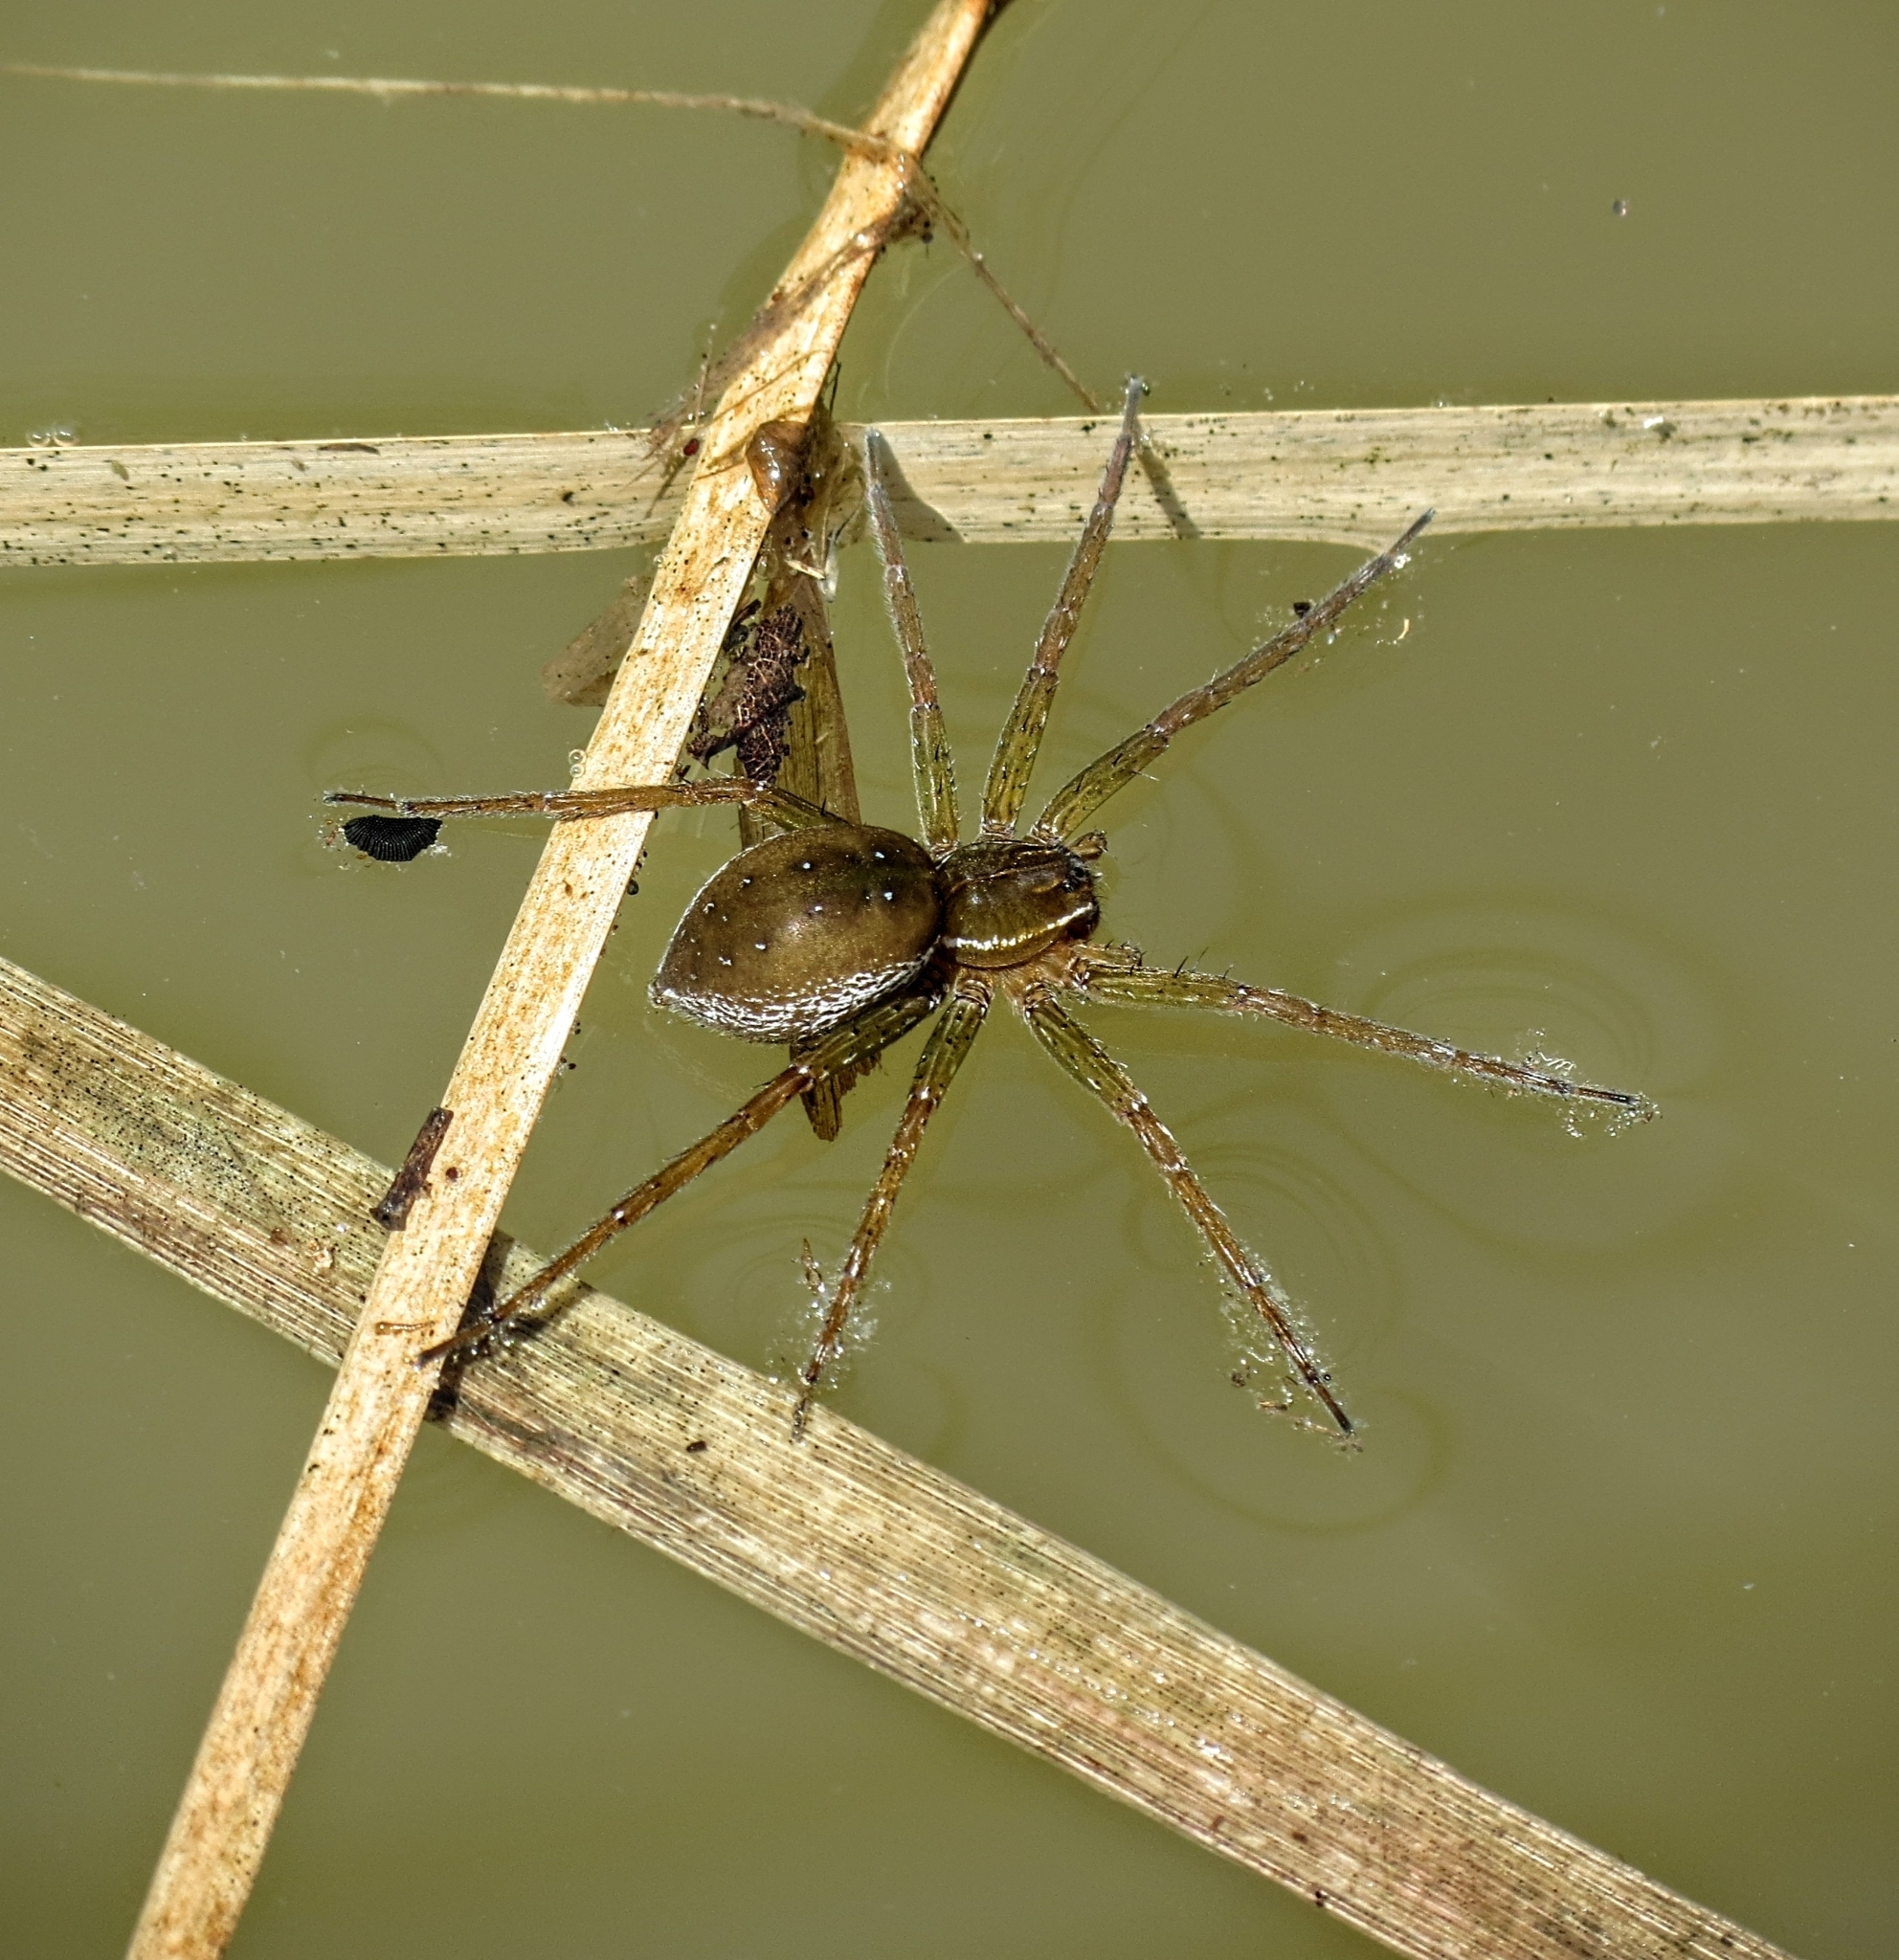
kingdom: Animalia
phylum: Arthropoda
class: Arachnida
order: Araneae
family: Pisauridae
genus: Dolomedes
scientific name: Dolomedes triton
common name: Six-spotted fishing spider
